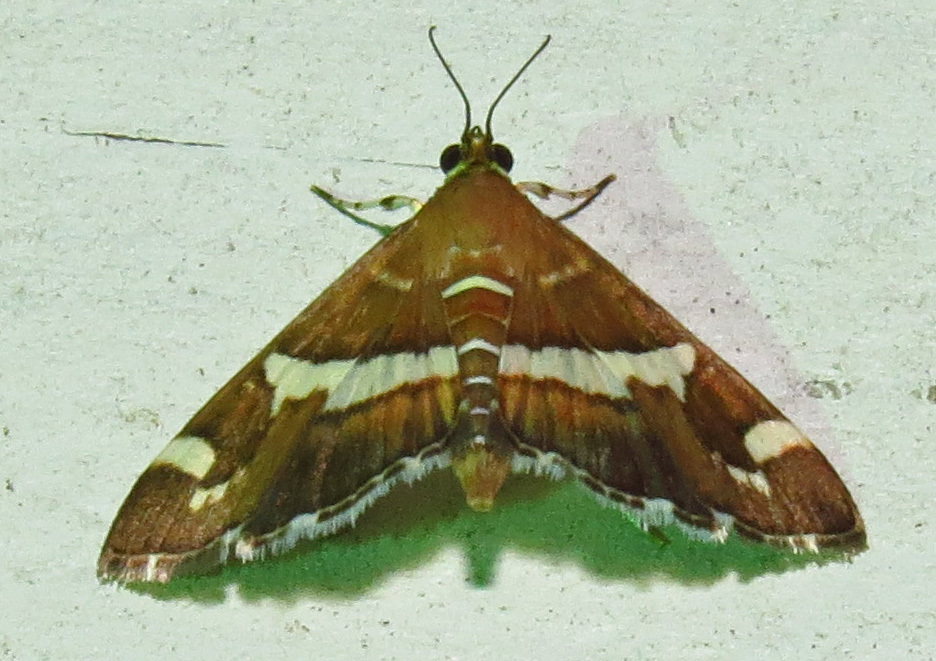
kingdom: Animalia
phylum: Arthropoda
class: Insecta
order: Lepidoptera
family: Crambidae
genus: Spoladea
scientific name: Spoladea recurvalis
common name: Beet webworm moth
